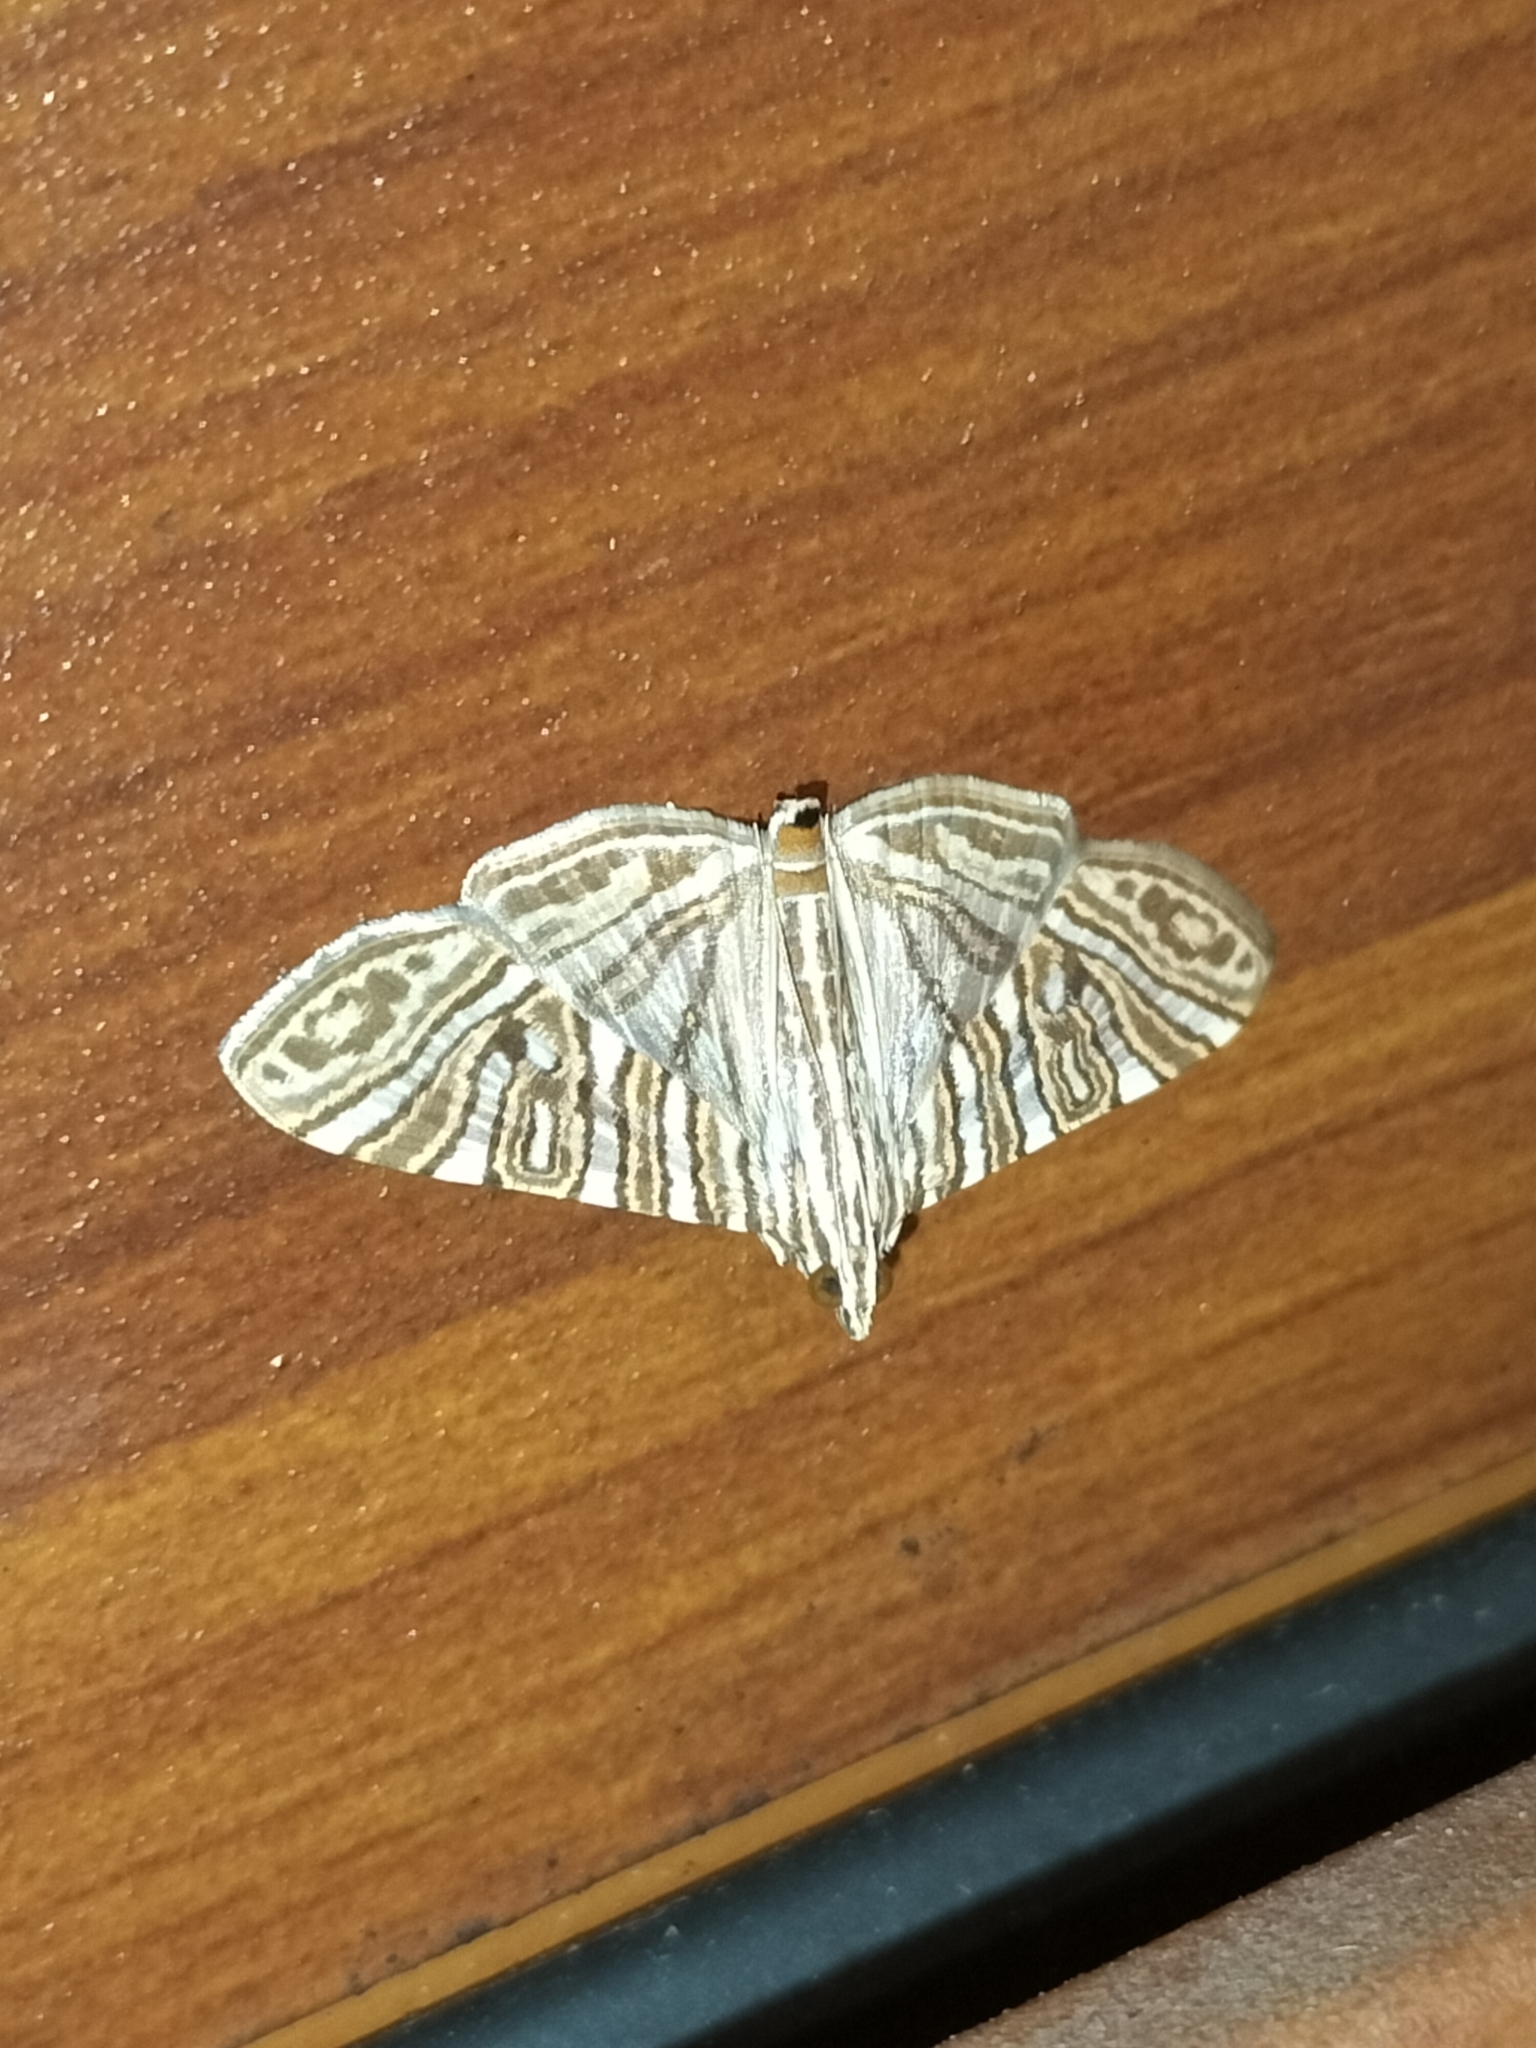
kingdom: Animalia
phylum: Arthropoda
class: Insecta
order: Lepidoptera
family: Crambidae
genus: Glyphodes
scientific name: Glyphodes multilinealis
